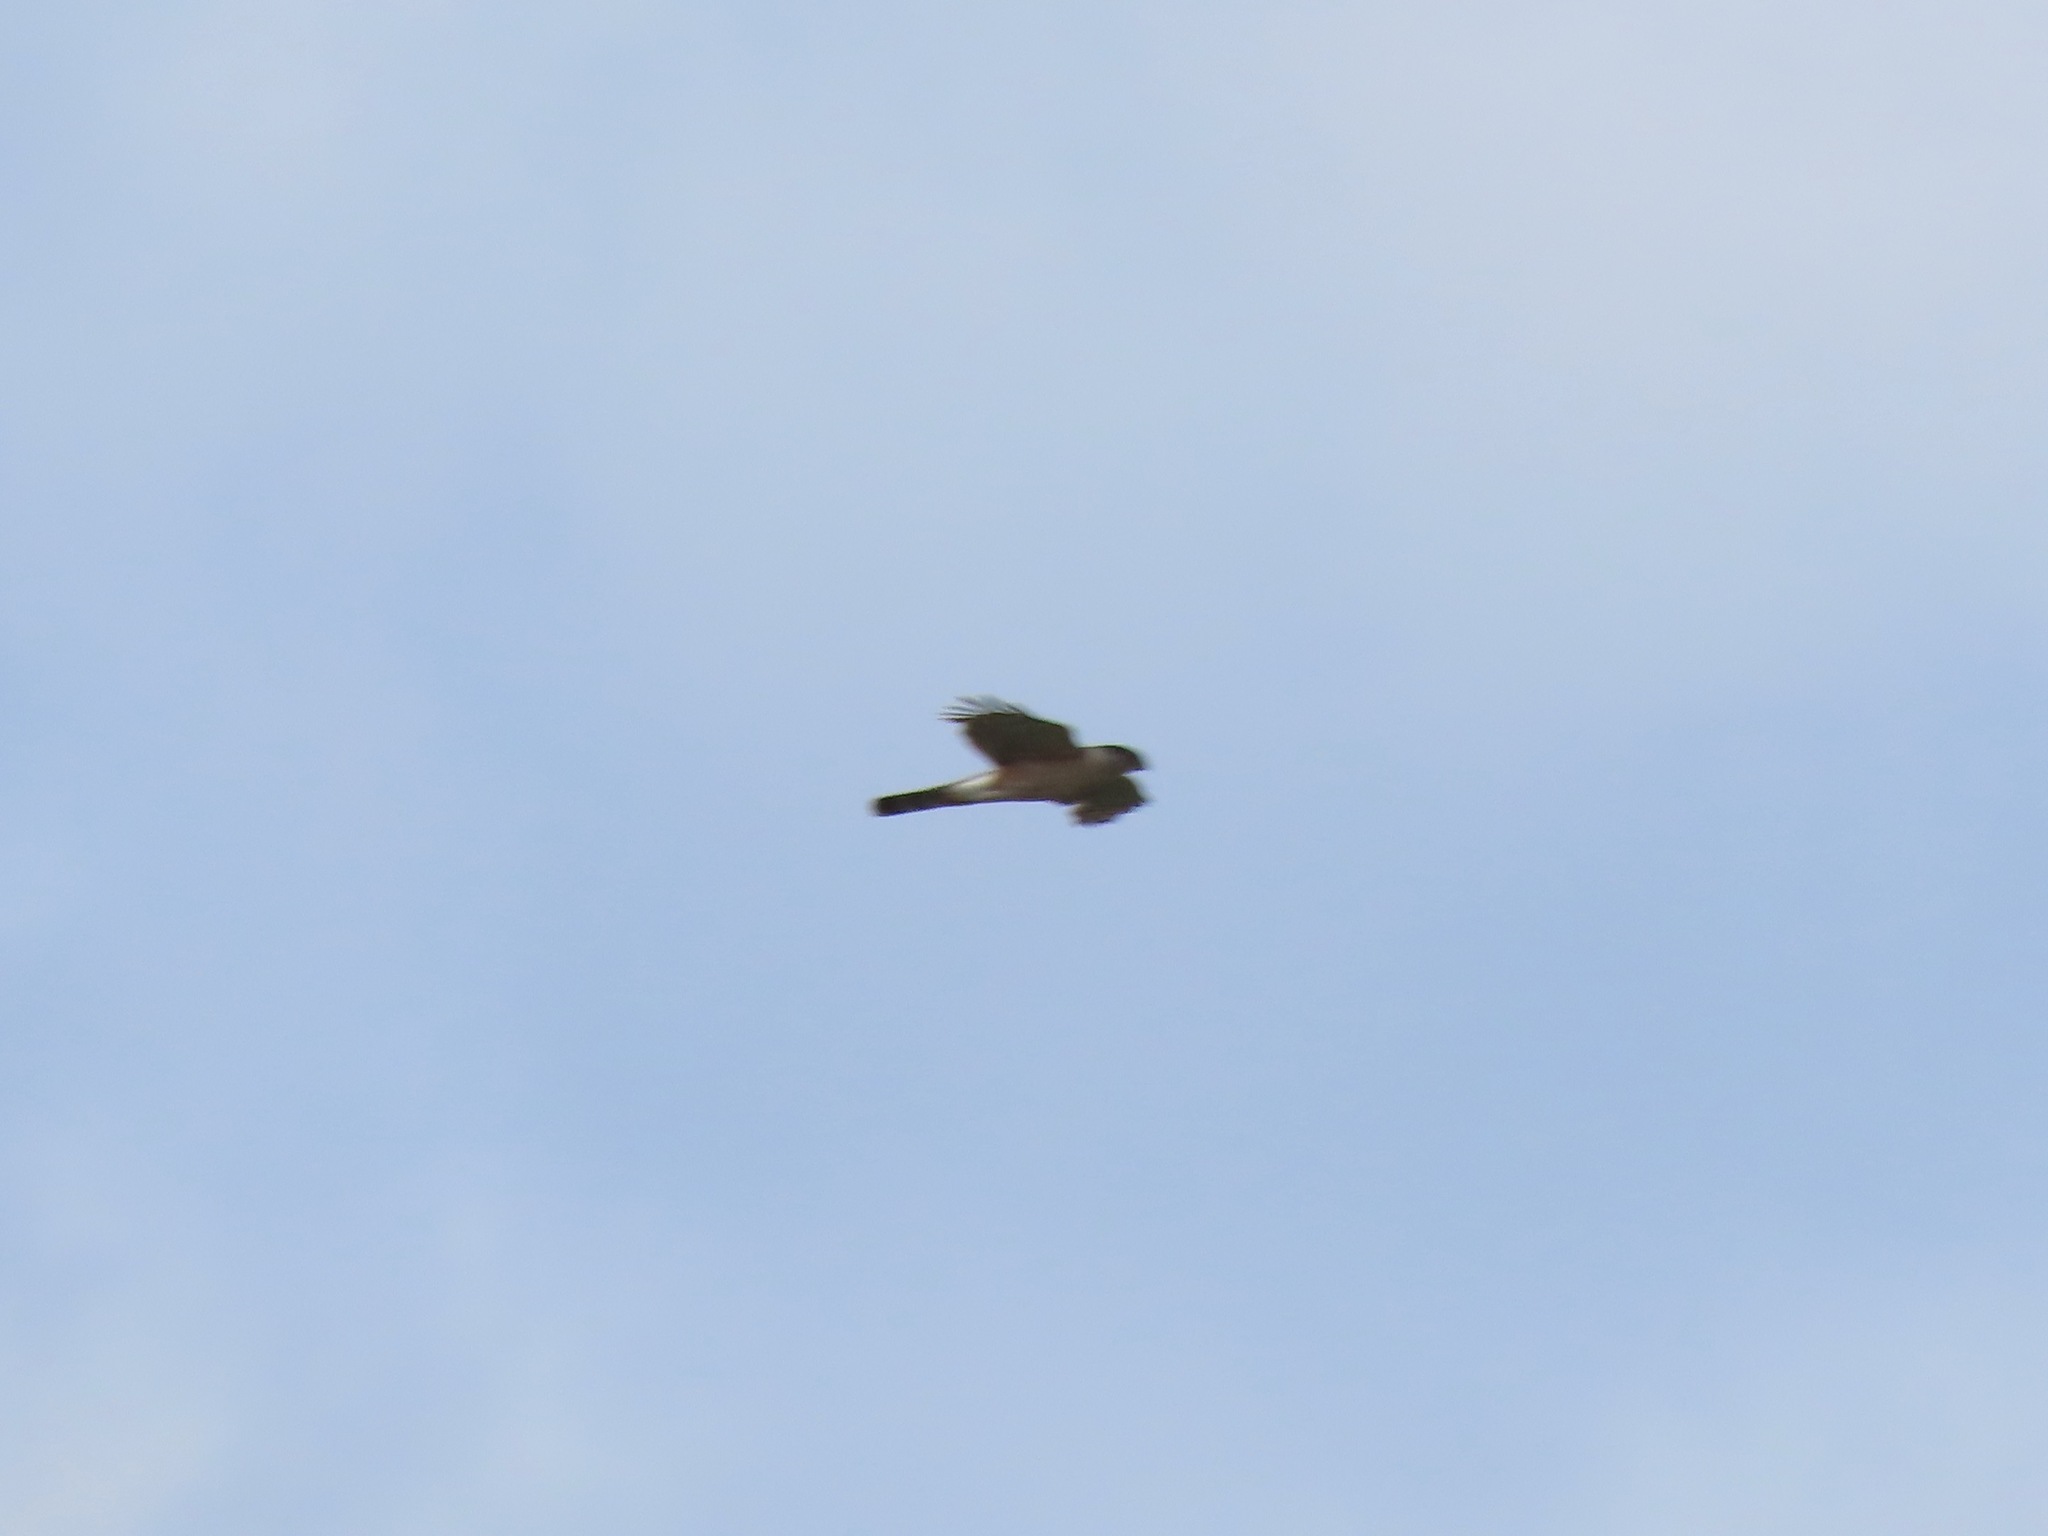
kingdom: Animalia
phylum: Chordata
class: Aves
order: Accipitriformes
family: Accipitridae
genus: Accipiter
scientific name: Accipiter cooperii
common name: Cooper's hawk
